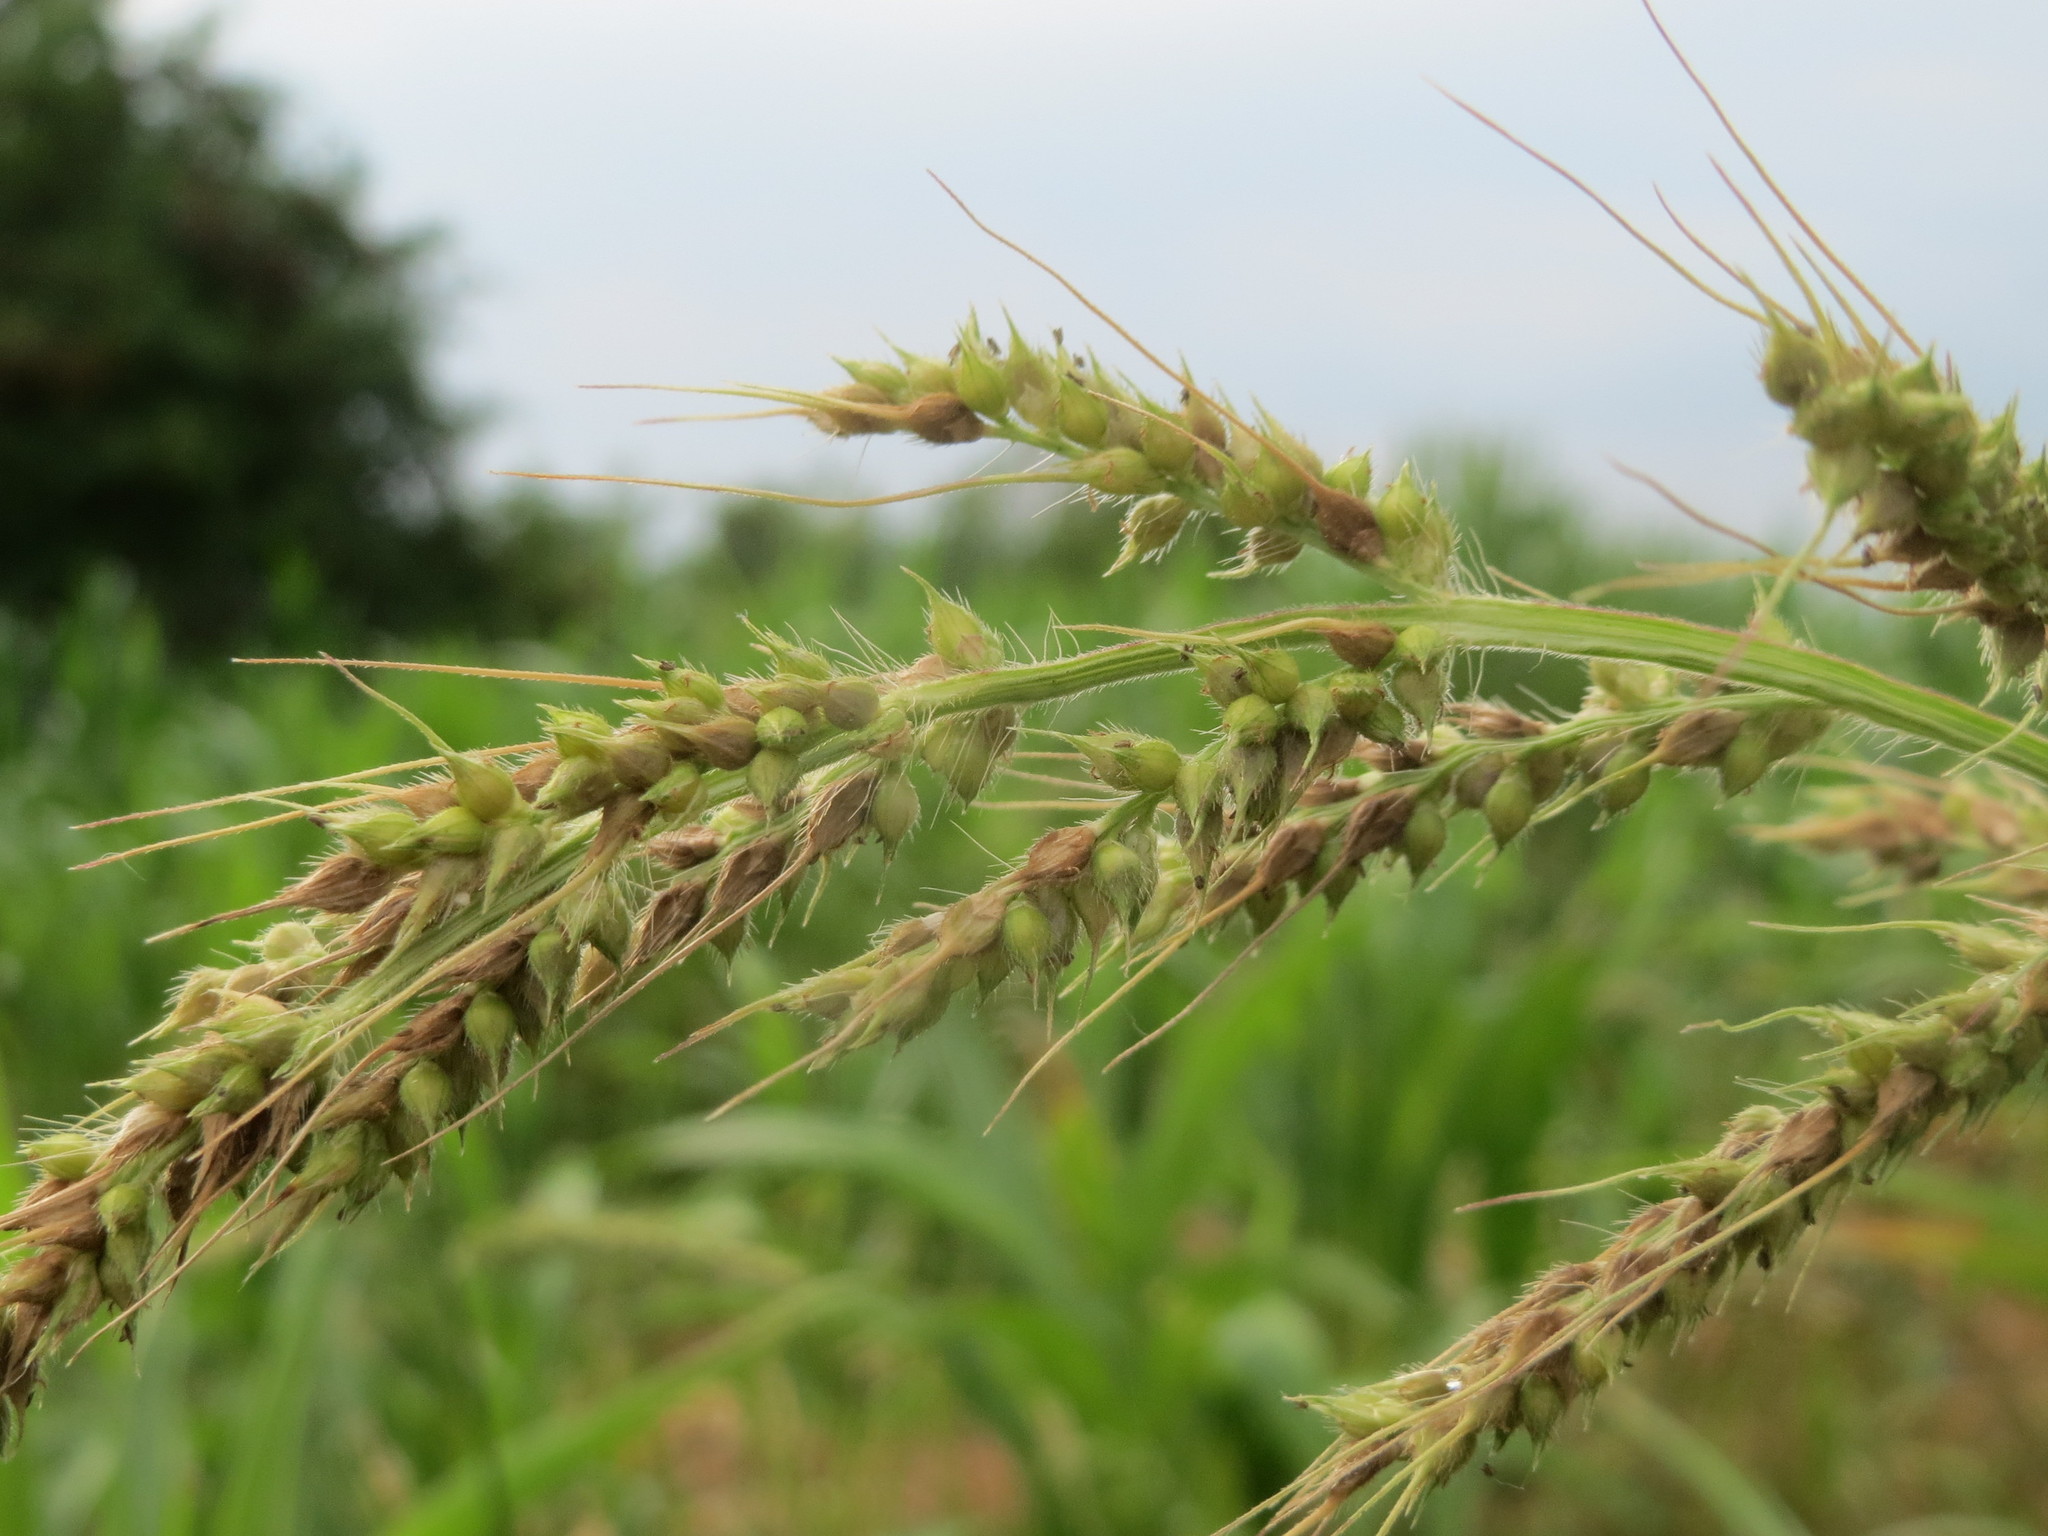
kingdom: Plantae
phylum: Tracheophyta
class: Liliopsida
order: Poales
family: Poaceae
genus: Echinochloa
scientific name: Echinochloa crus-galli
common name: Cockspur
